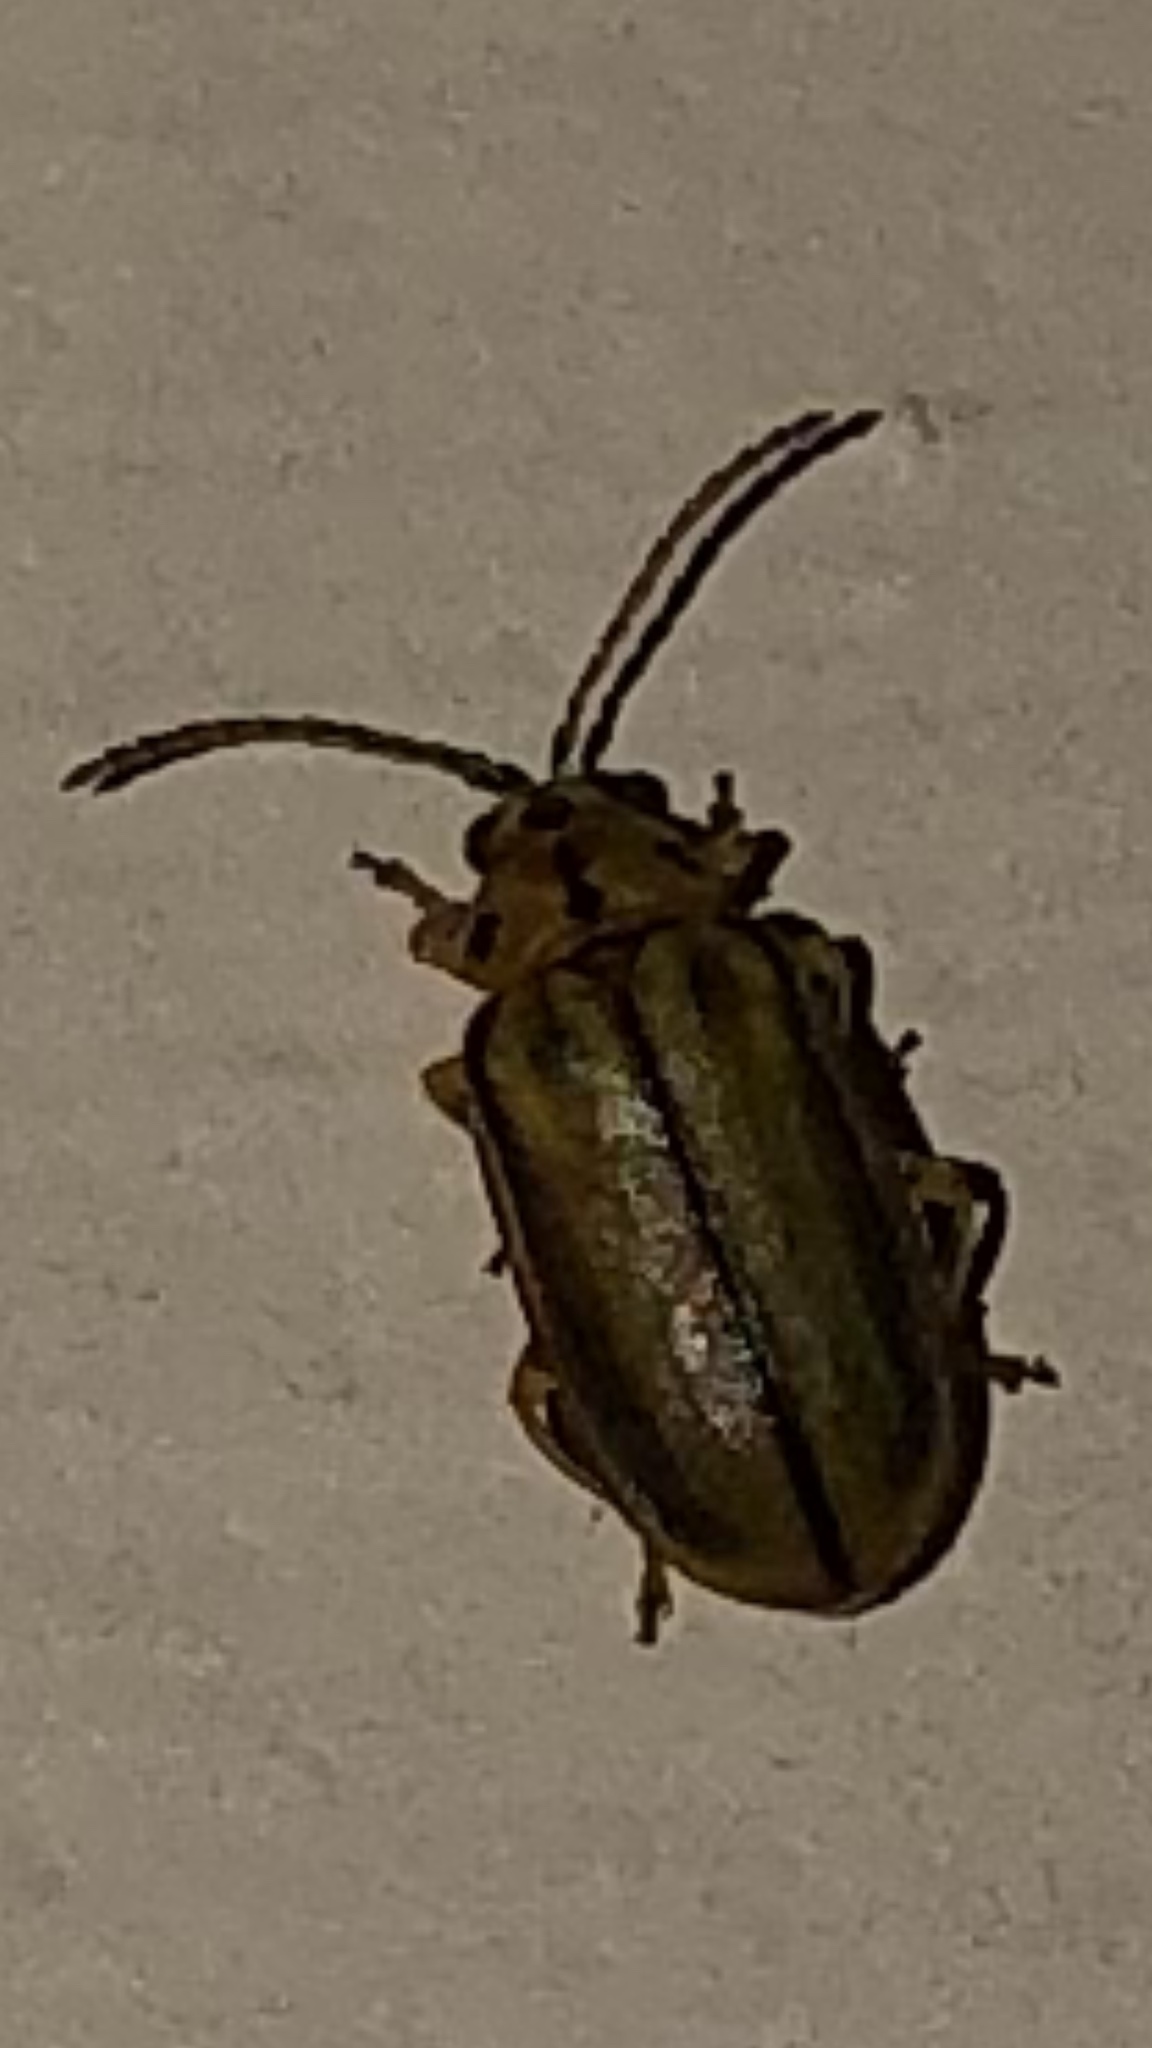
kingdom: Animalia
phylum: Arthropoda
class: Insecta
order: Coleoptera
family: Chrysomelidae
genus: Xanthogaleruca
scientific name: Xanthogaleruca luteola
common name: Elm leaf beetle
